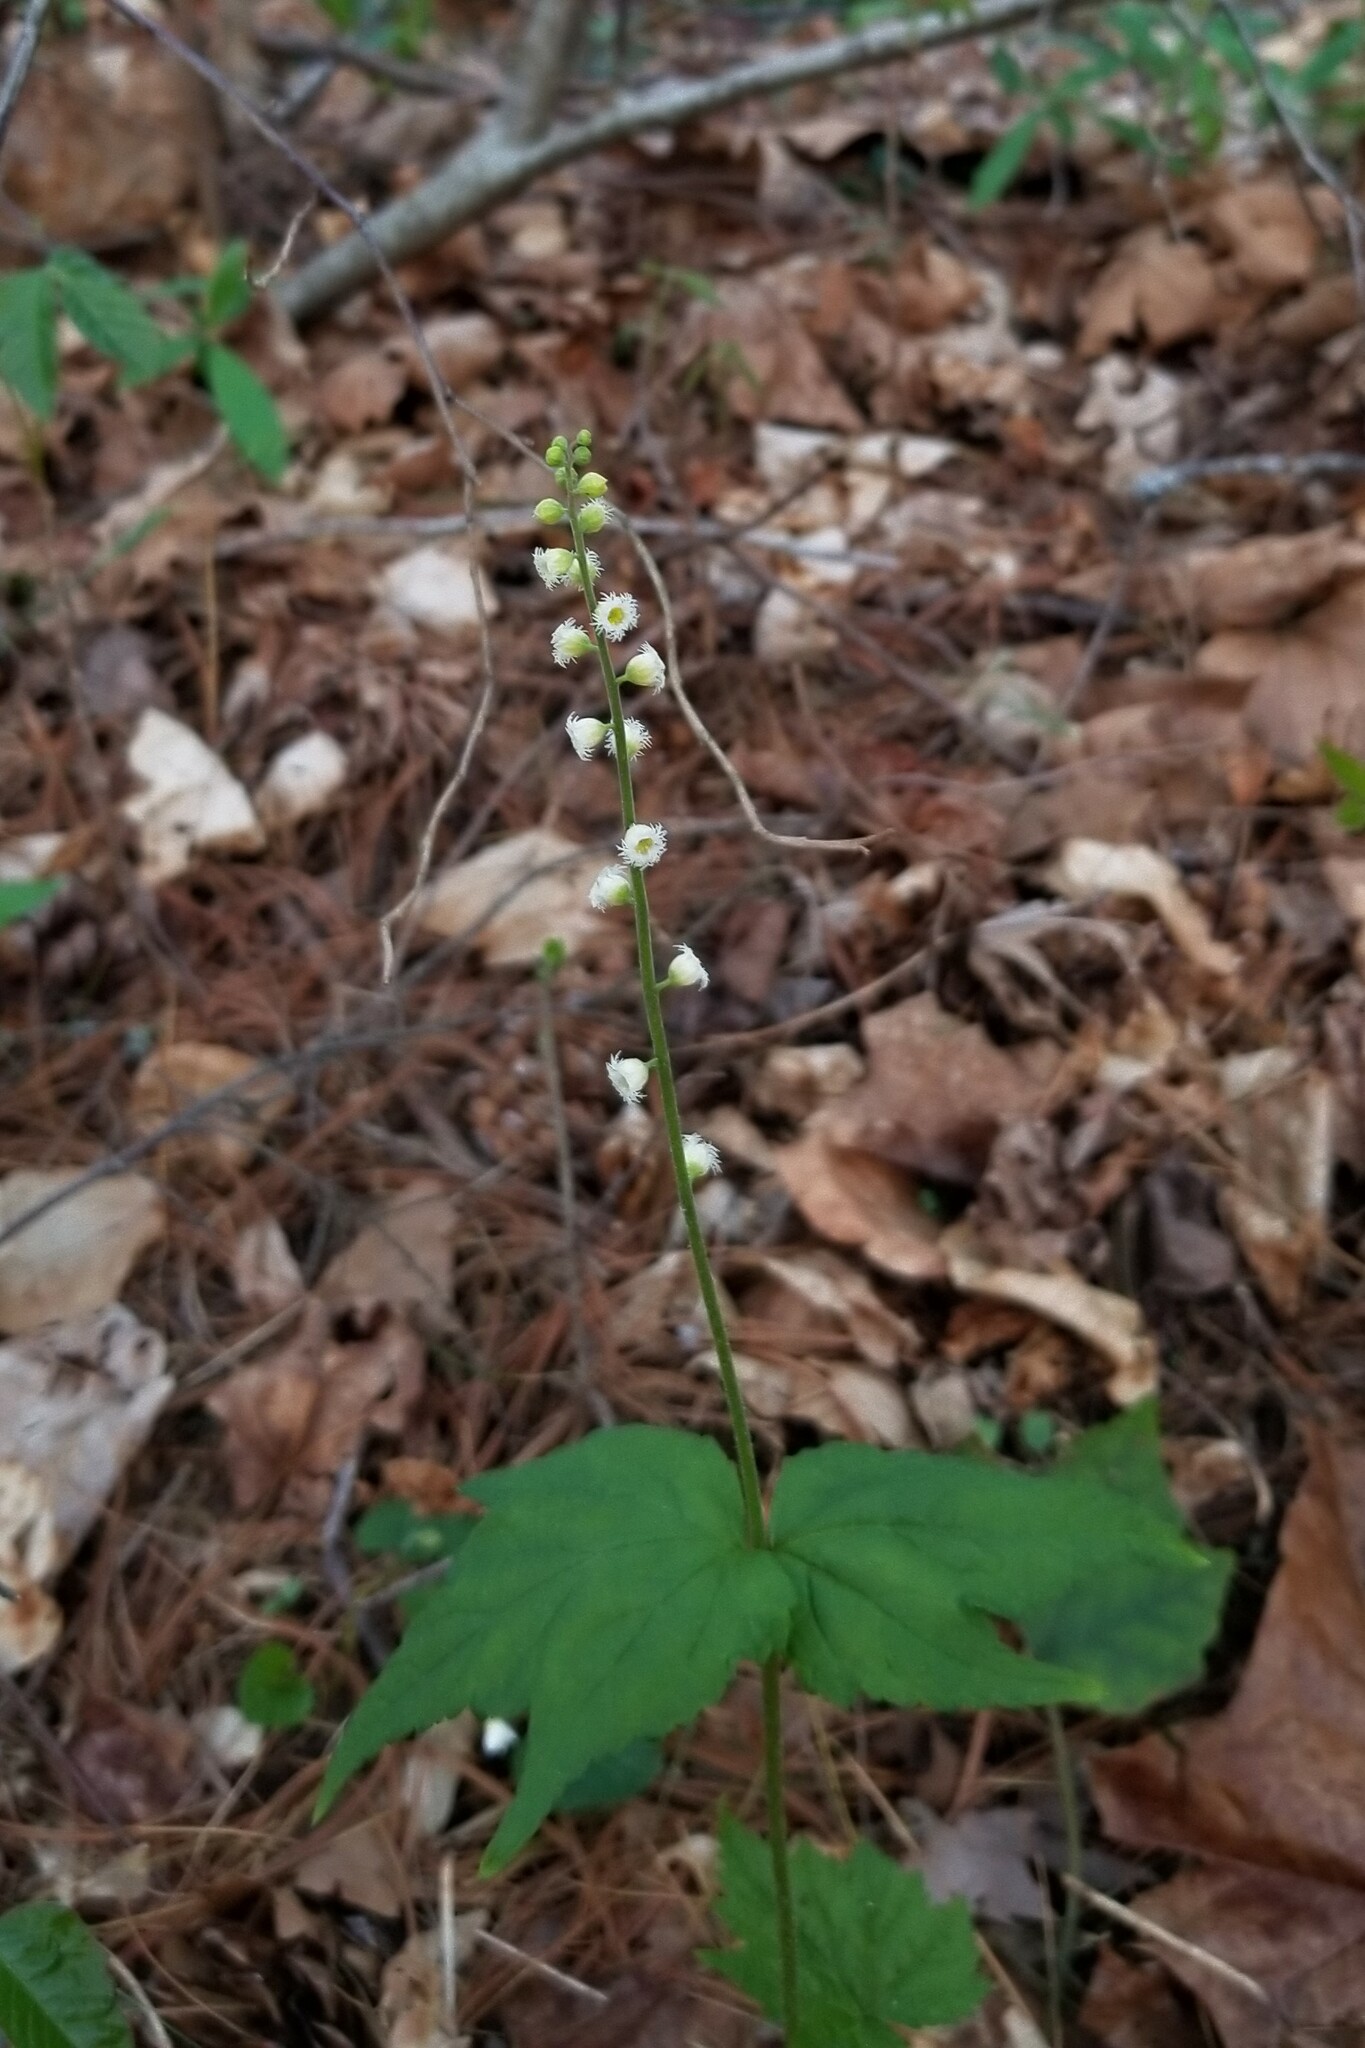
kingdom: Plantae
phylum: Tracheophyta
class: Magnoliopsida
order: Saxifragales
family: Saxifragaceae
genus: Mitella
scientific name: Mitella diphylla
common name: Coolwort
